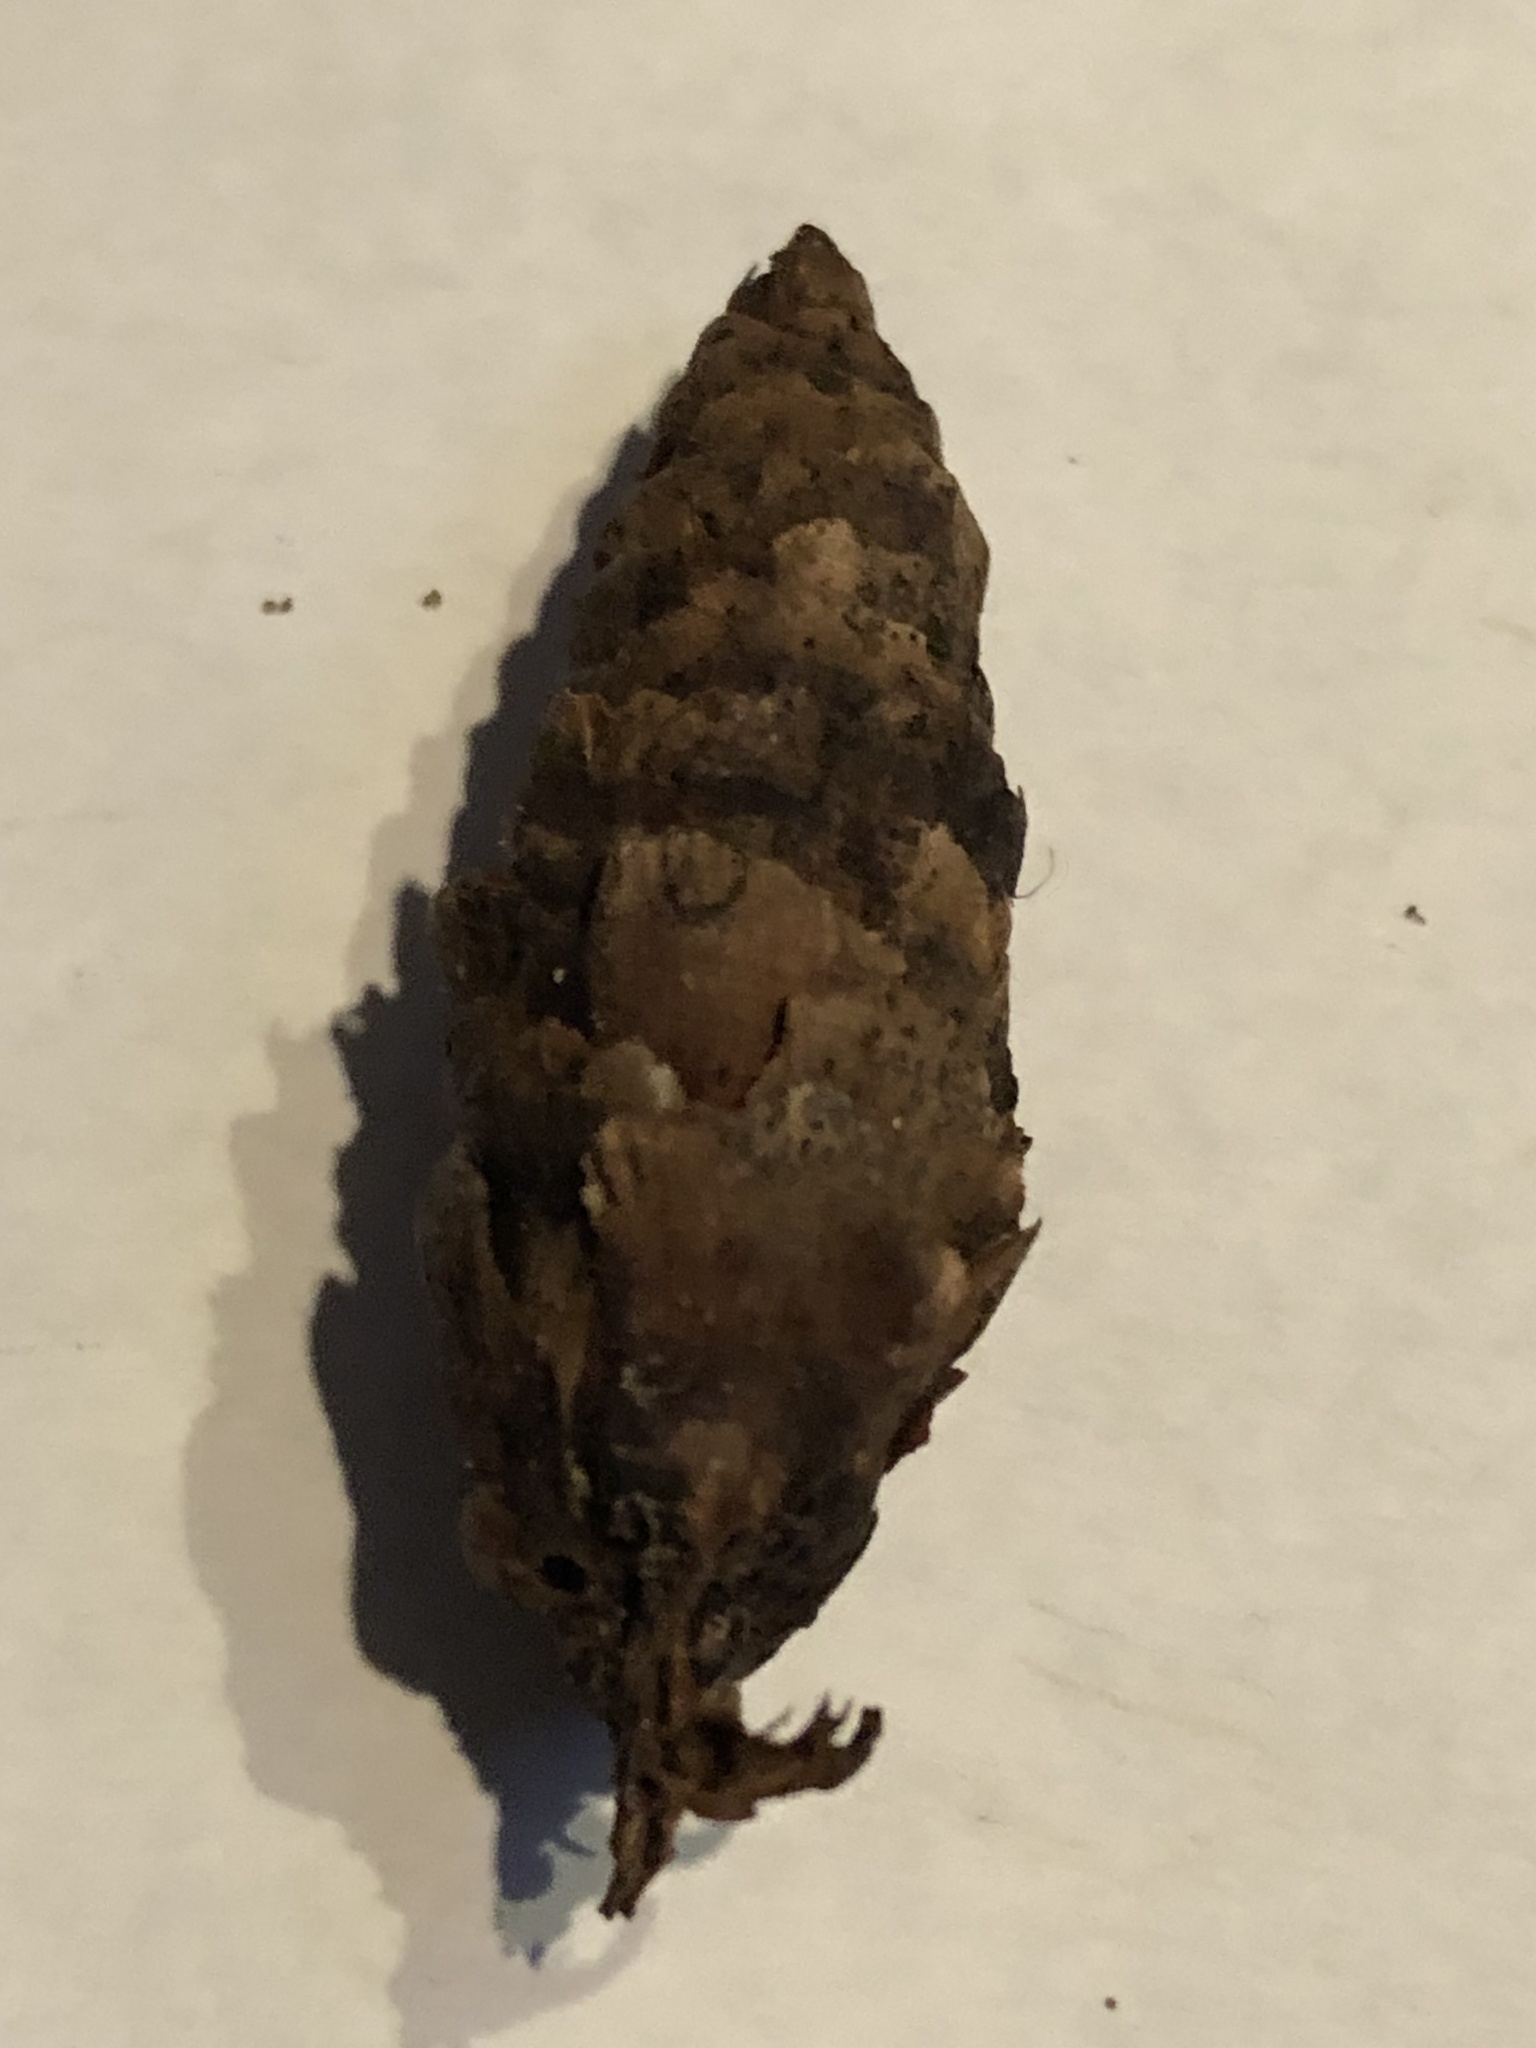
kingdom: Plantae
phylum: Tracheophyta
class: Pinopsida
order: Pinales
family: Pinaceae
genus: Picea
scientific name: Picea glauca
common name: White spruce
